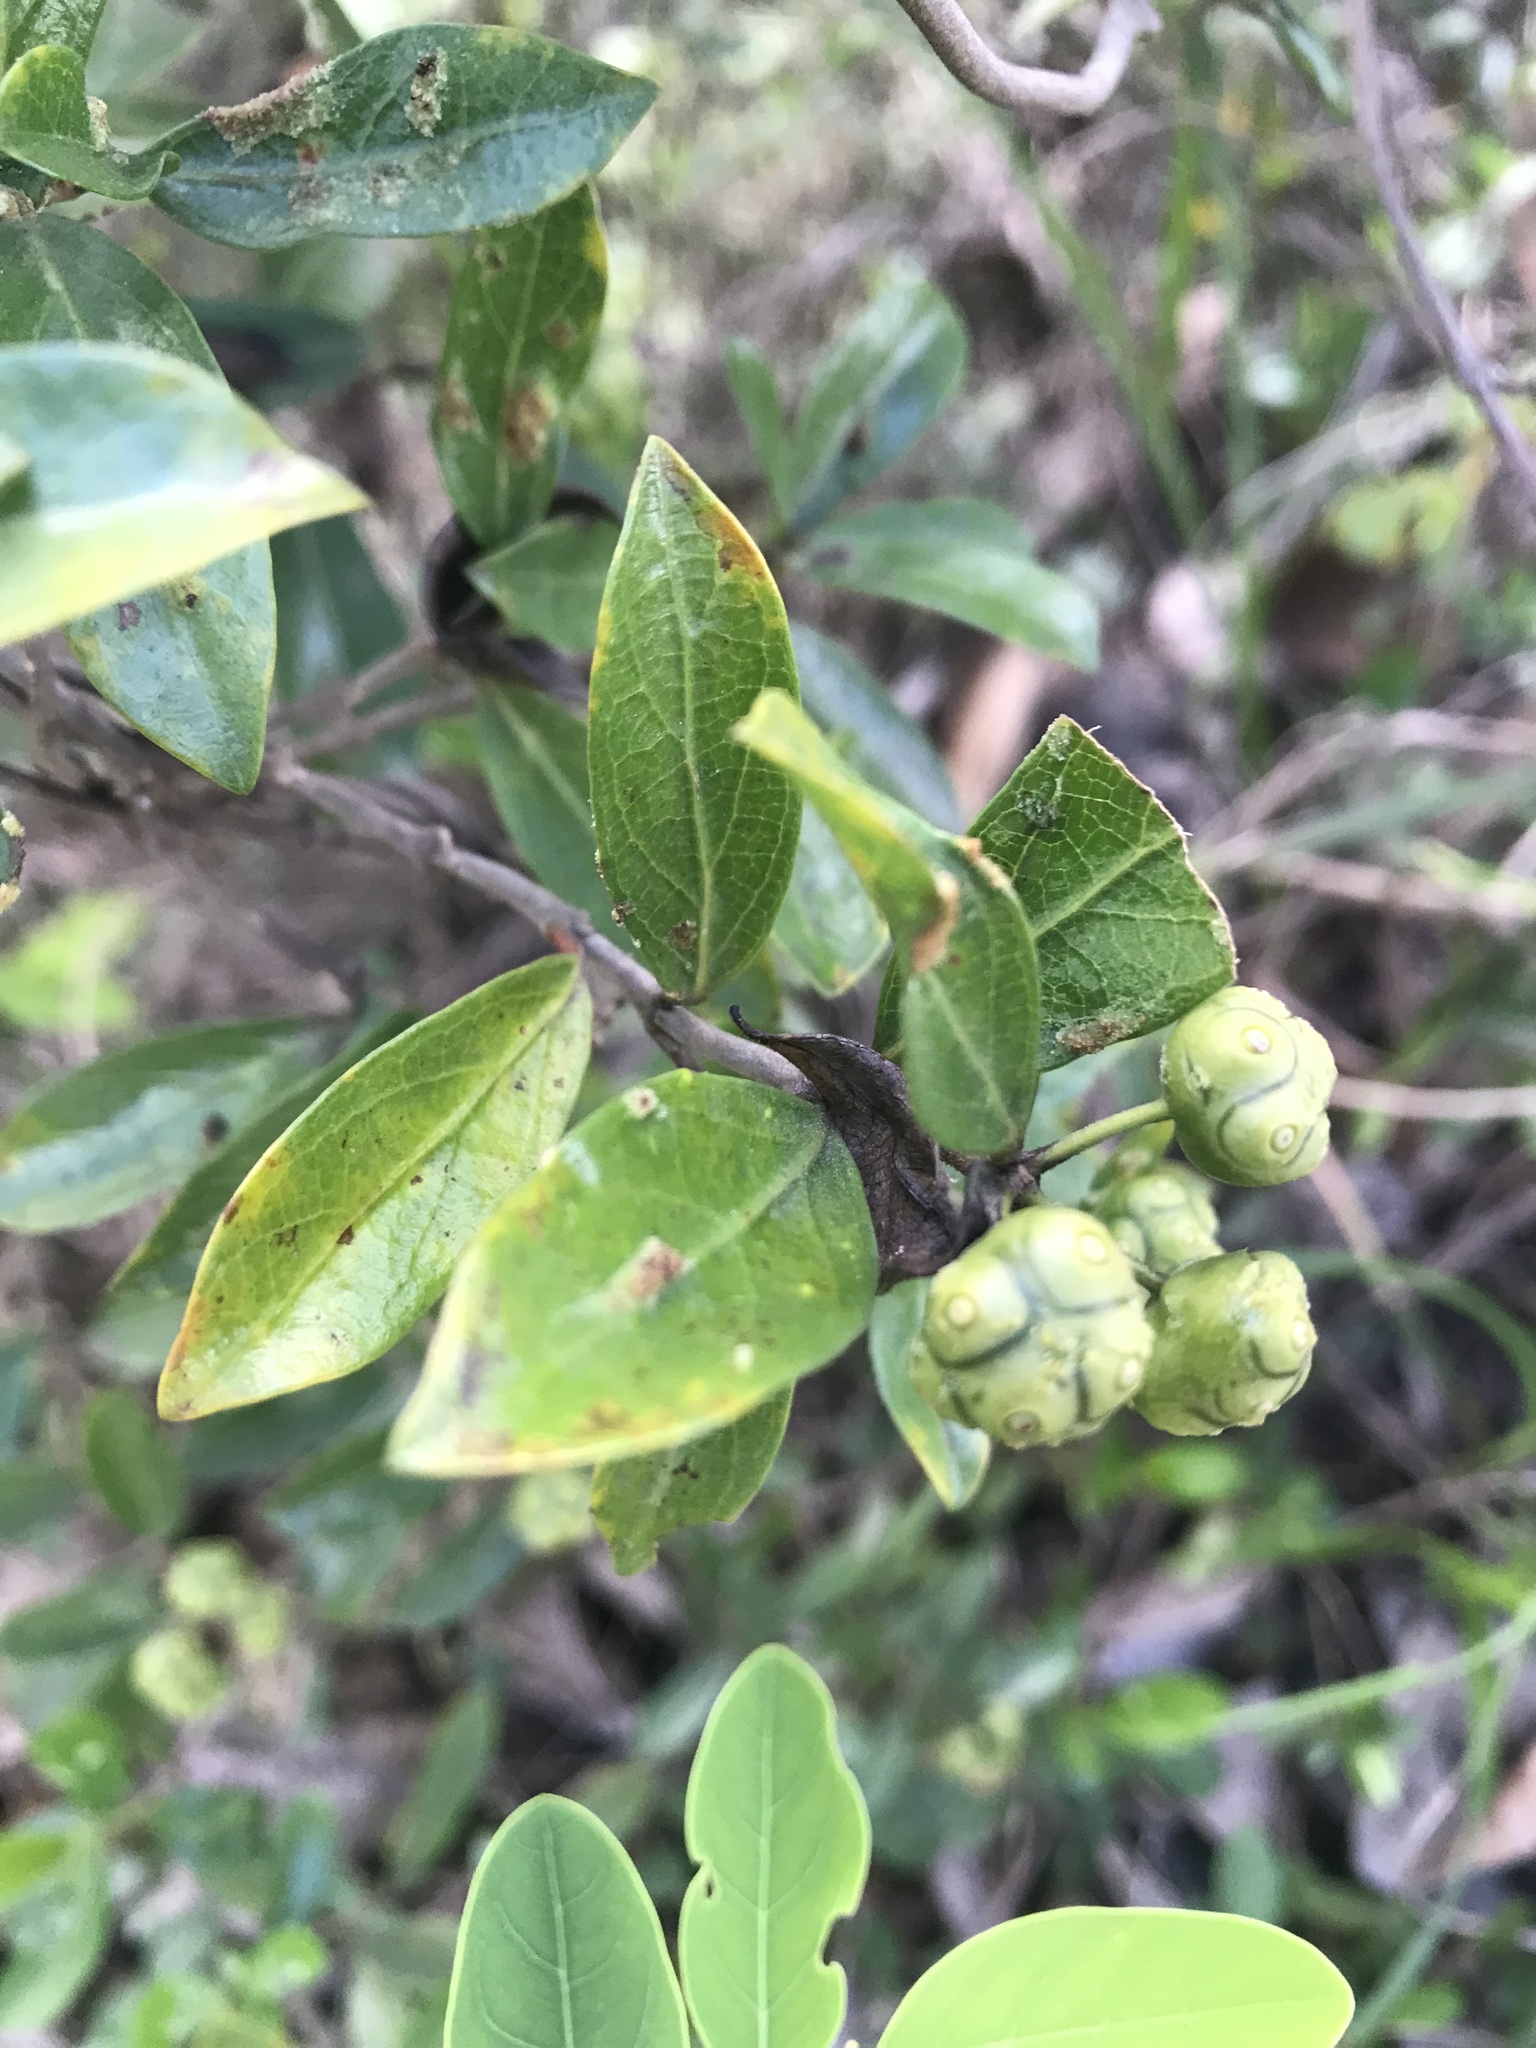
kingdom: Plantae
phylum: Tracheophyta
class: Magnoliopsida
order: Gentianales
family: Rubiaceae
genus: Gynochthodes
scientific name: Gynochthodes parvifolia
